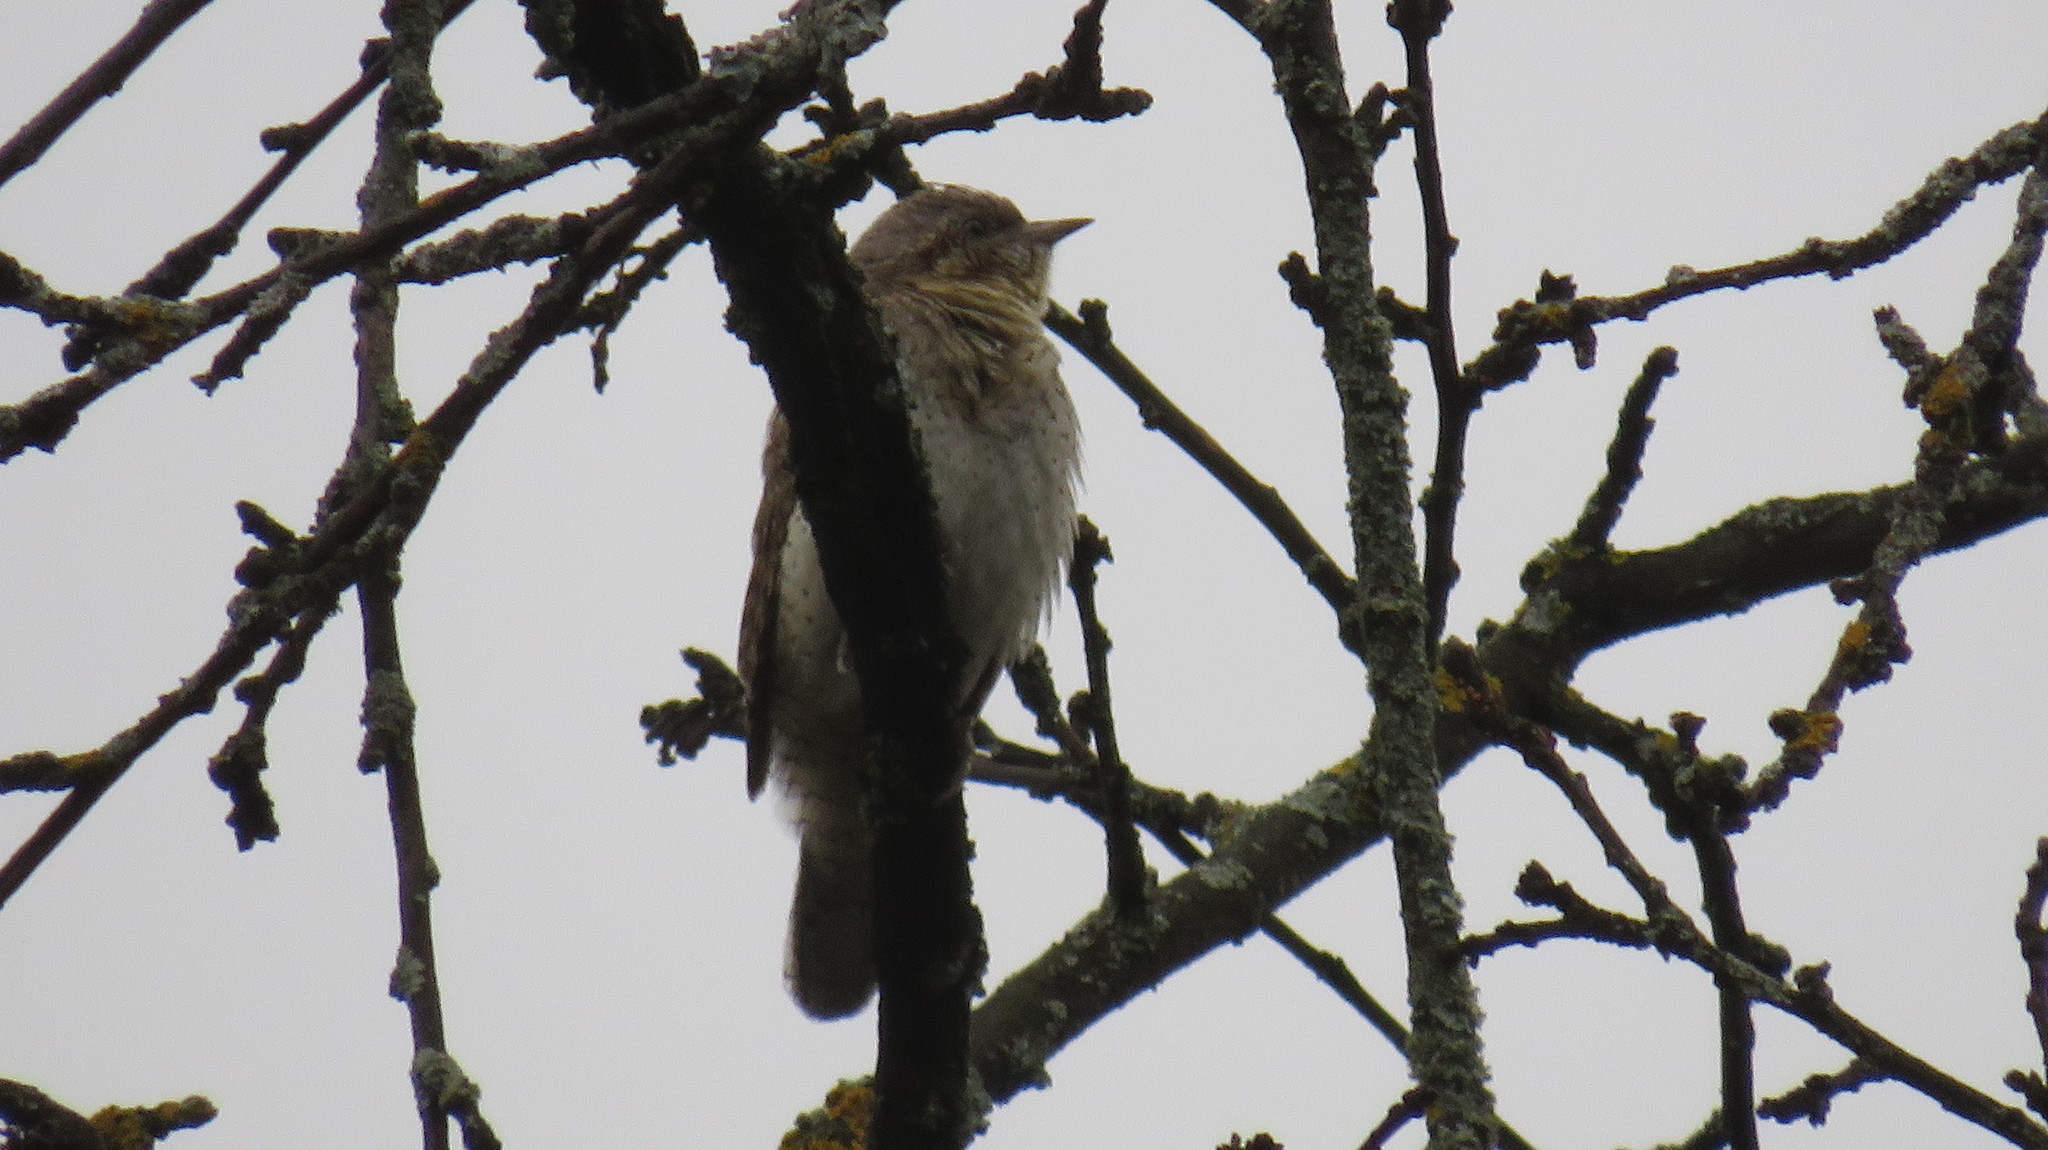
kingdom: Animalia
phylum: Chordata
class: Aves
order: Piciformes
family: Picidae
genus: Jynx
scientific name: Jynx torquilla
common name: Eurasian wryneck
